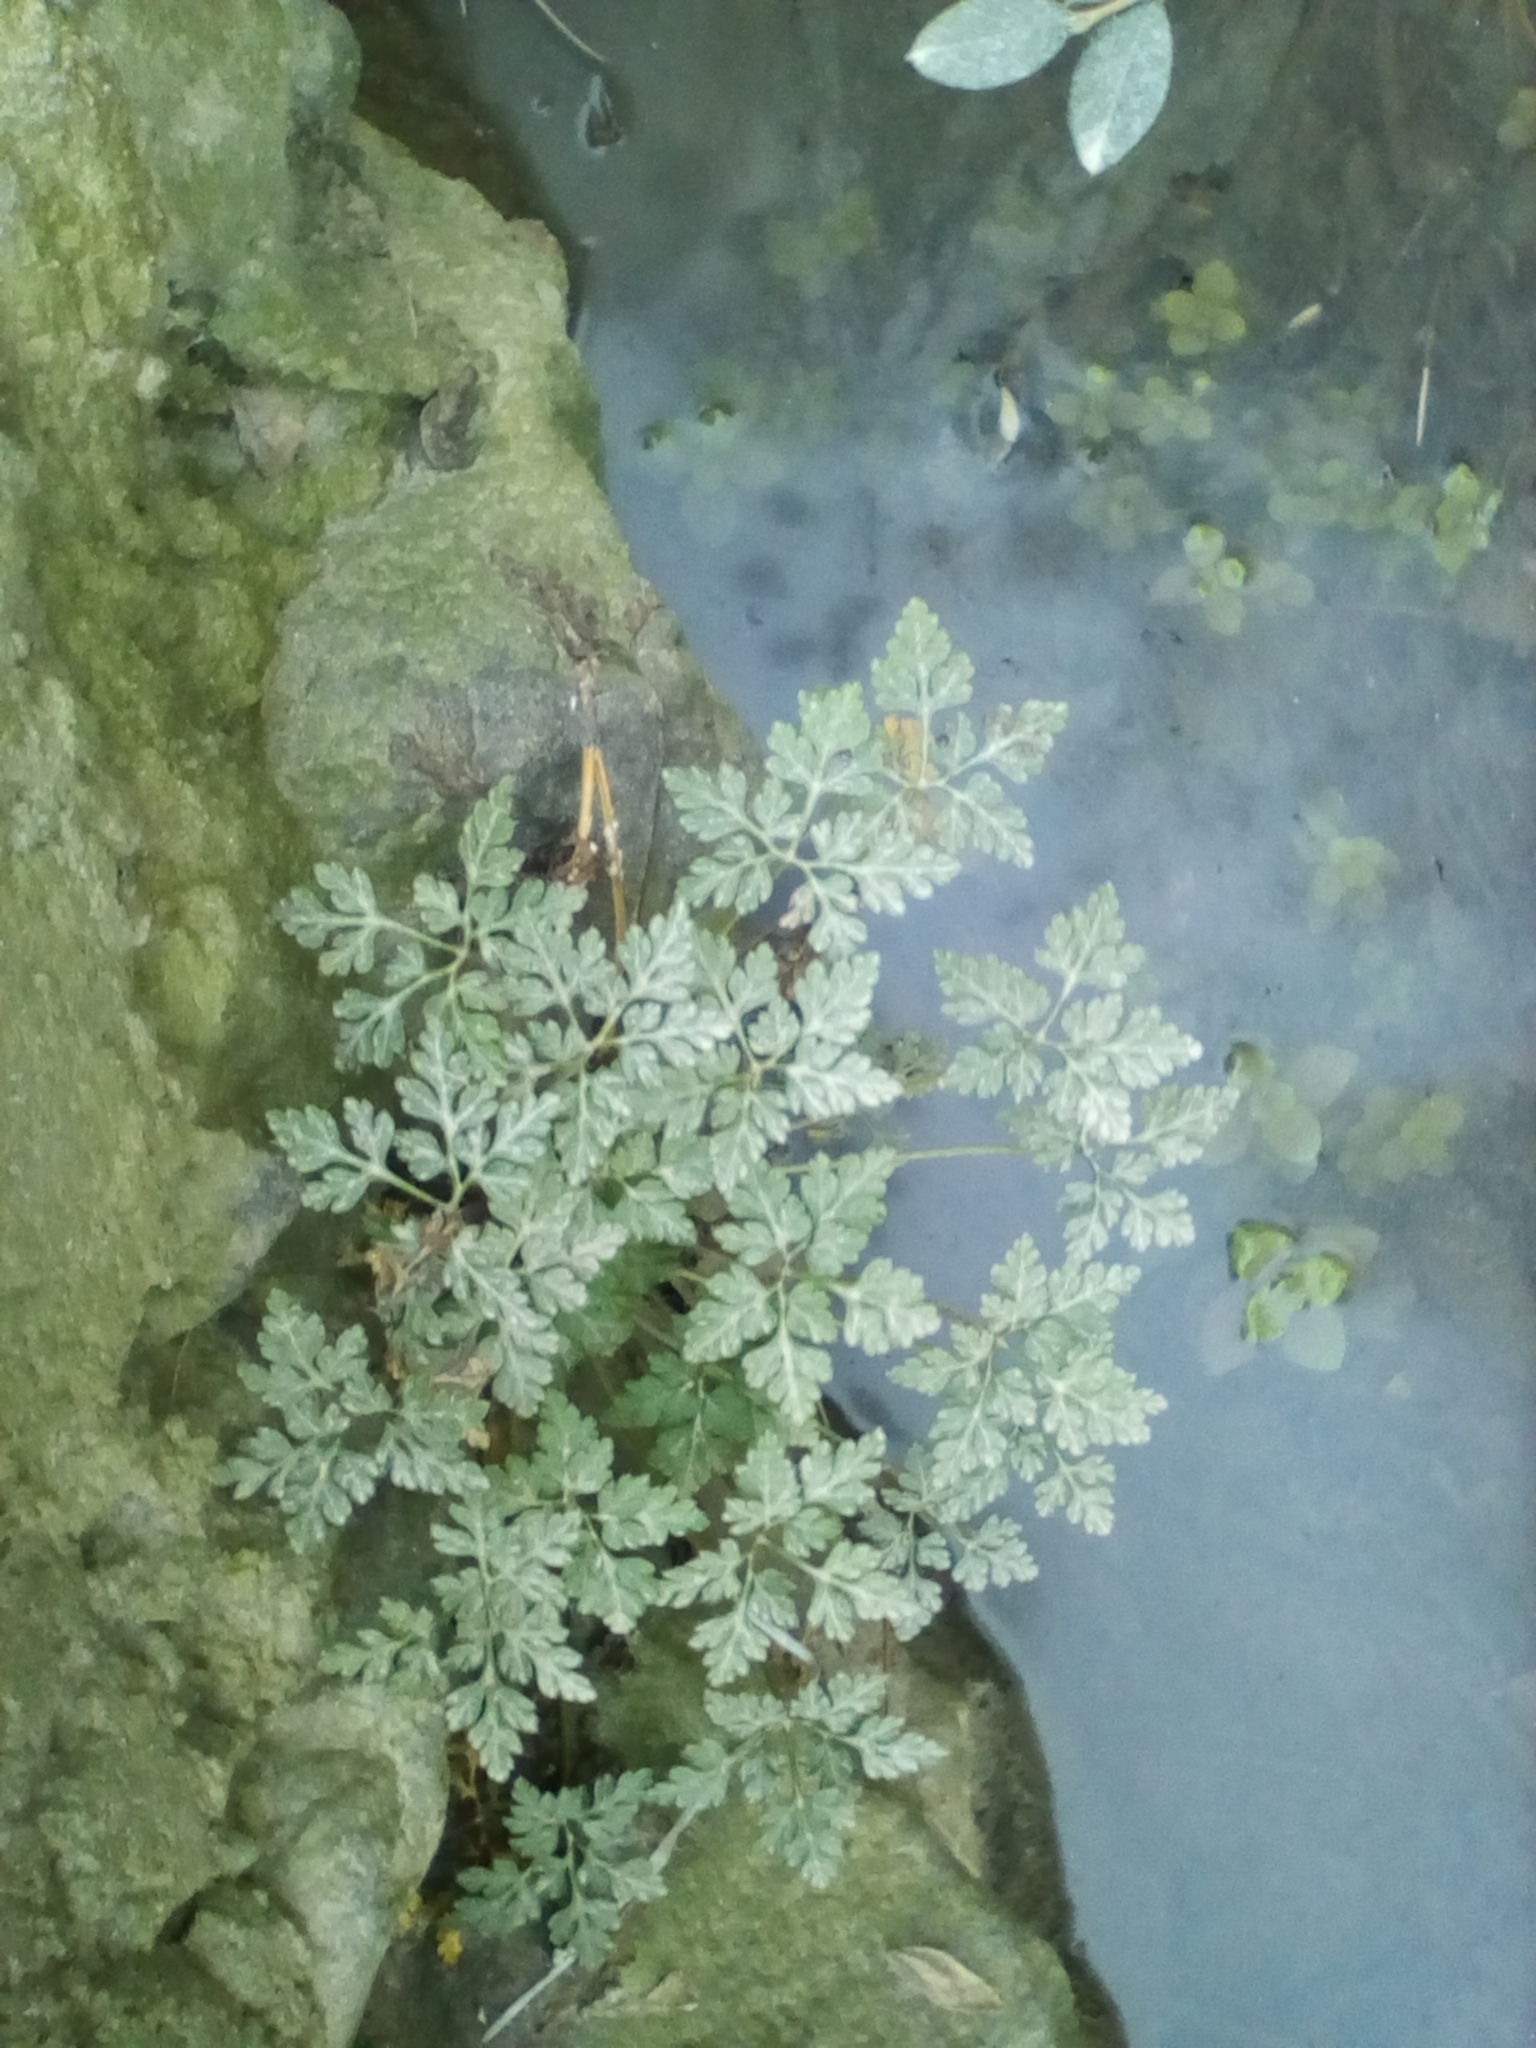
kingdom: Plantae
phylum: Tracheophyta
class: Magnoliopsida
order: Geraniales
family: Geraniaceae
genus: Geranium
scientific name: Geranium robertianum
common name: Herb-robert
